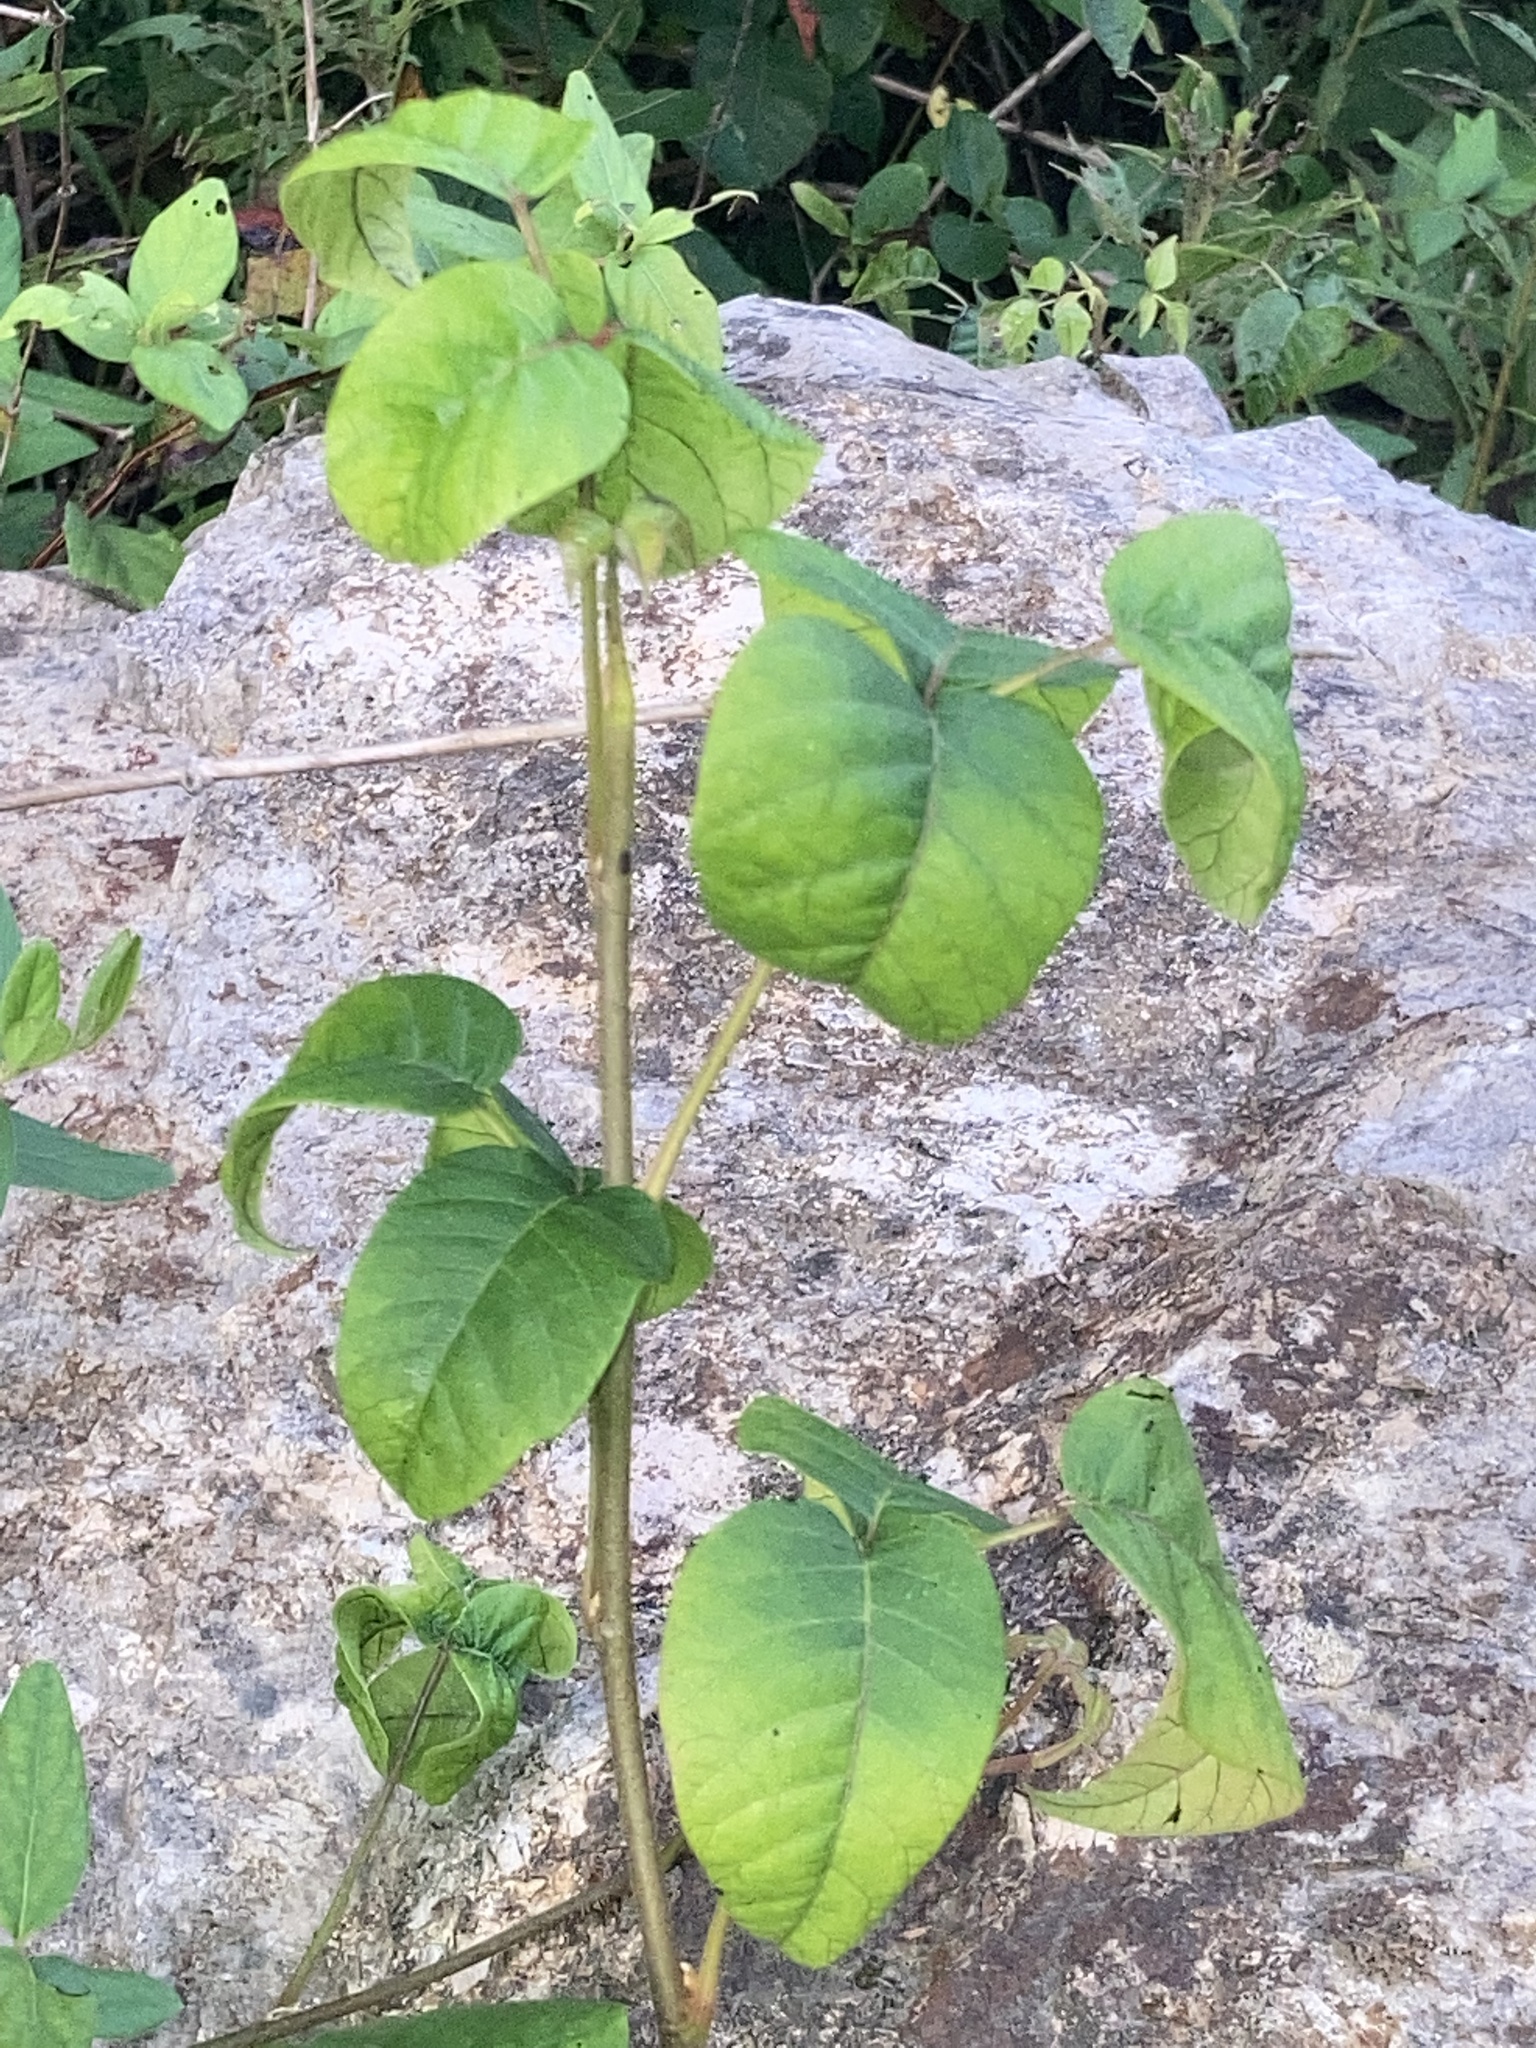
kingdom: Plantae
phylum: Tracheophyta
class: Magnoliopsida
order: Sapindales
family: Anacardiaceae
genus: Toxicodendron
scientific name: Toxicodendron radicans
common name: Poison ivy
